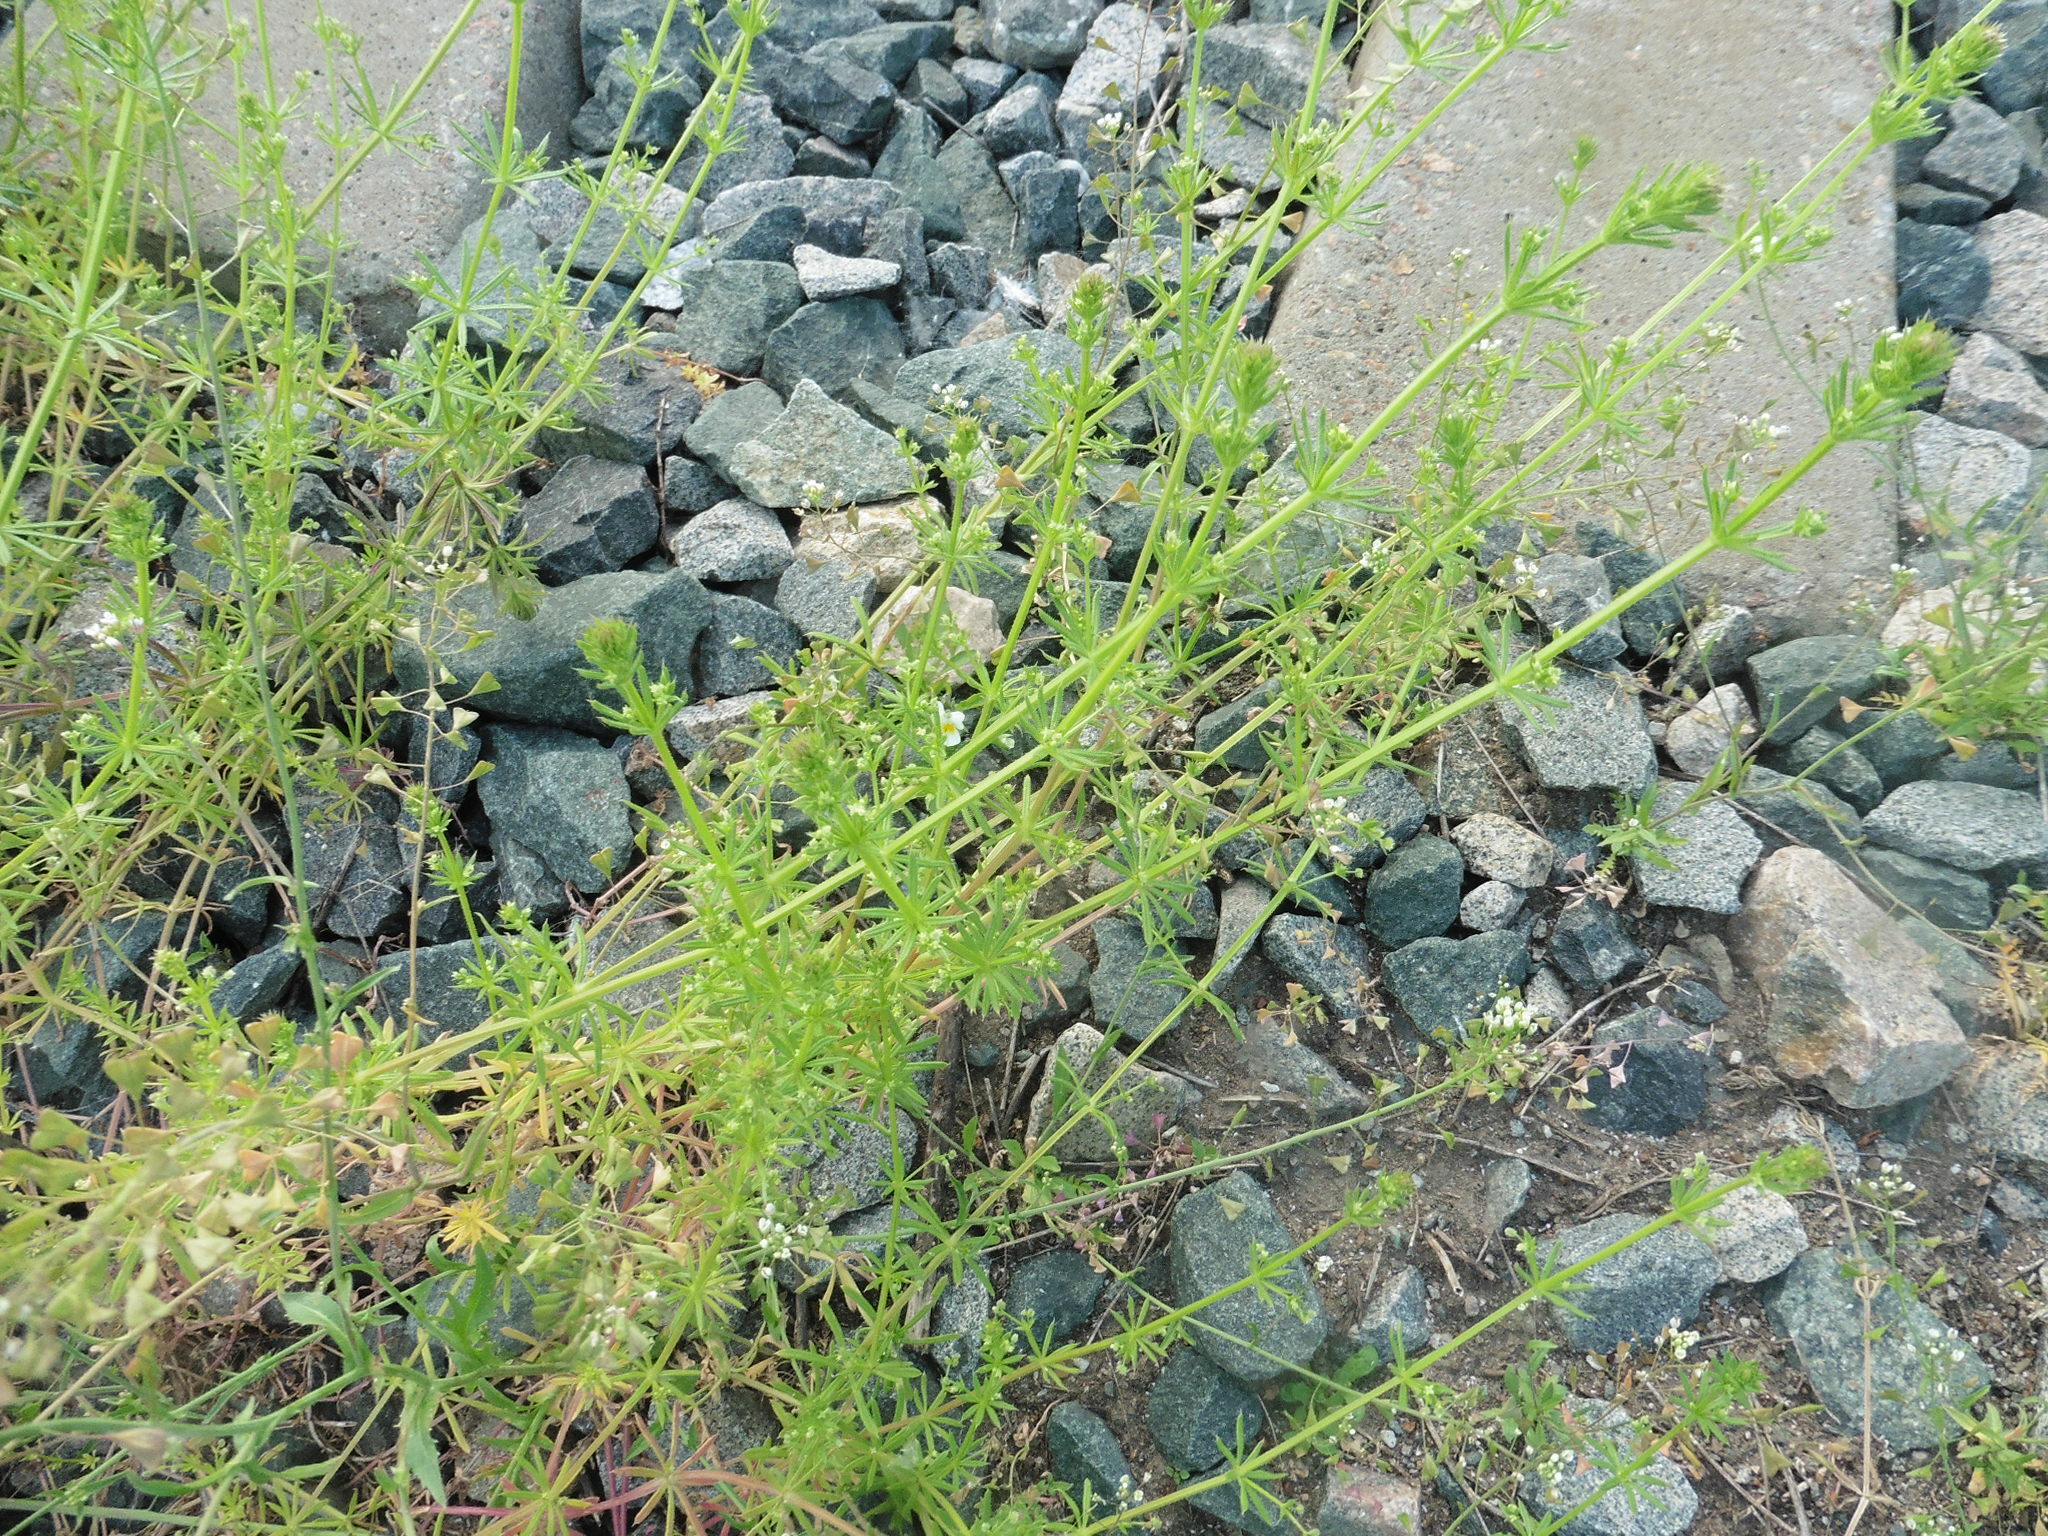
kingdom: Plantae
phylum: Tracheophyta
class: Magnoliopsida
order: Gentianales
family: Rubiaceae
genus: Galium
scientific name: Galium aparine
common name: Cleavers
